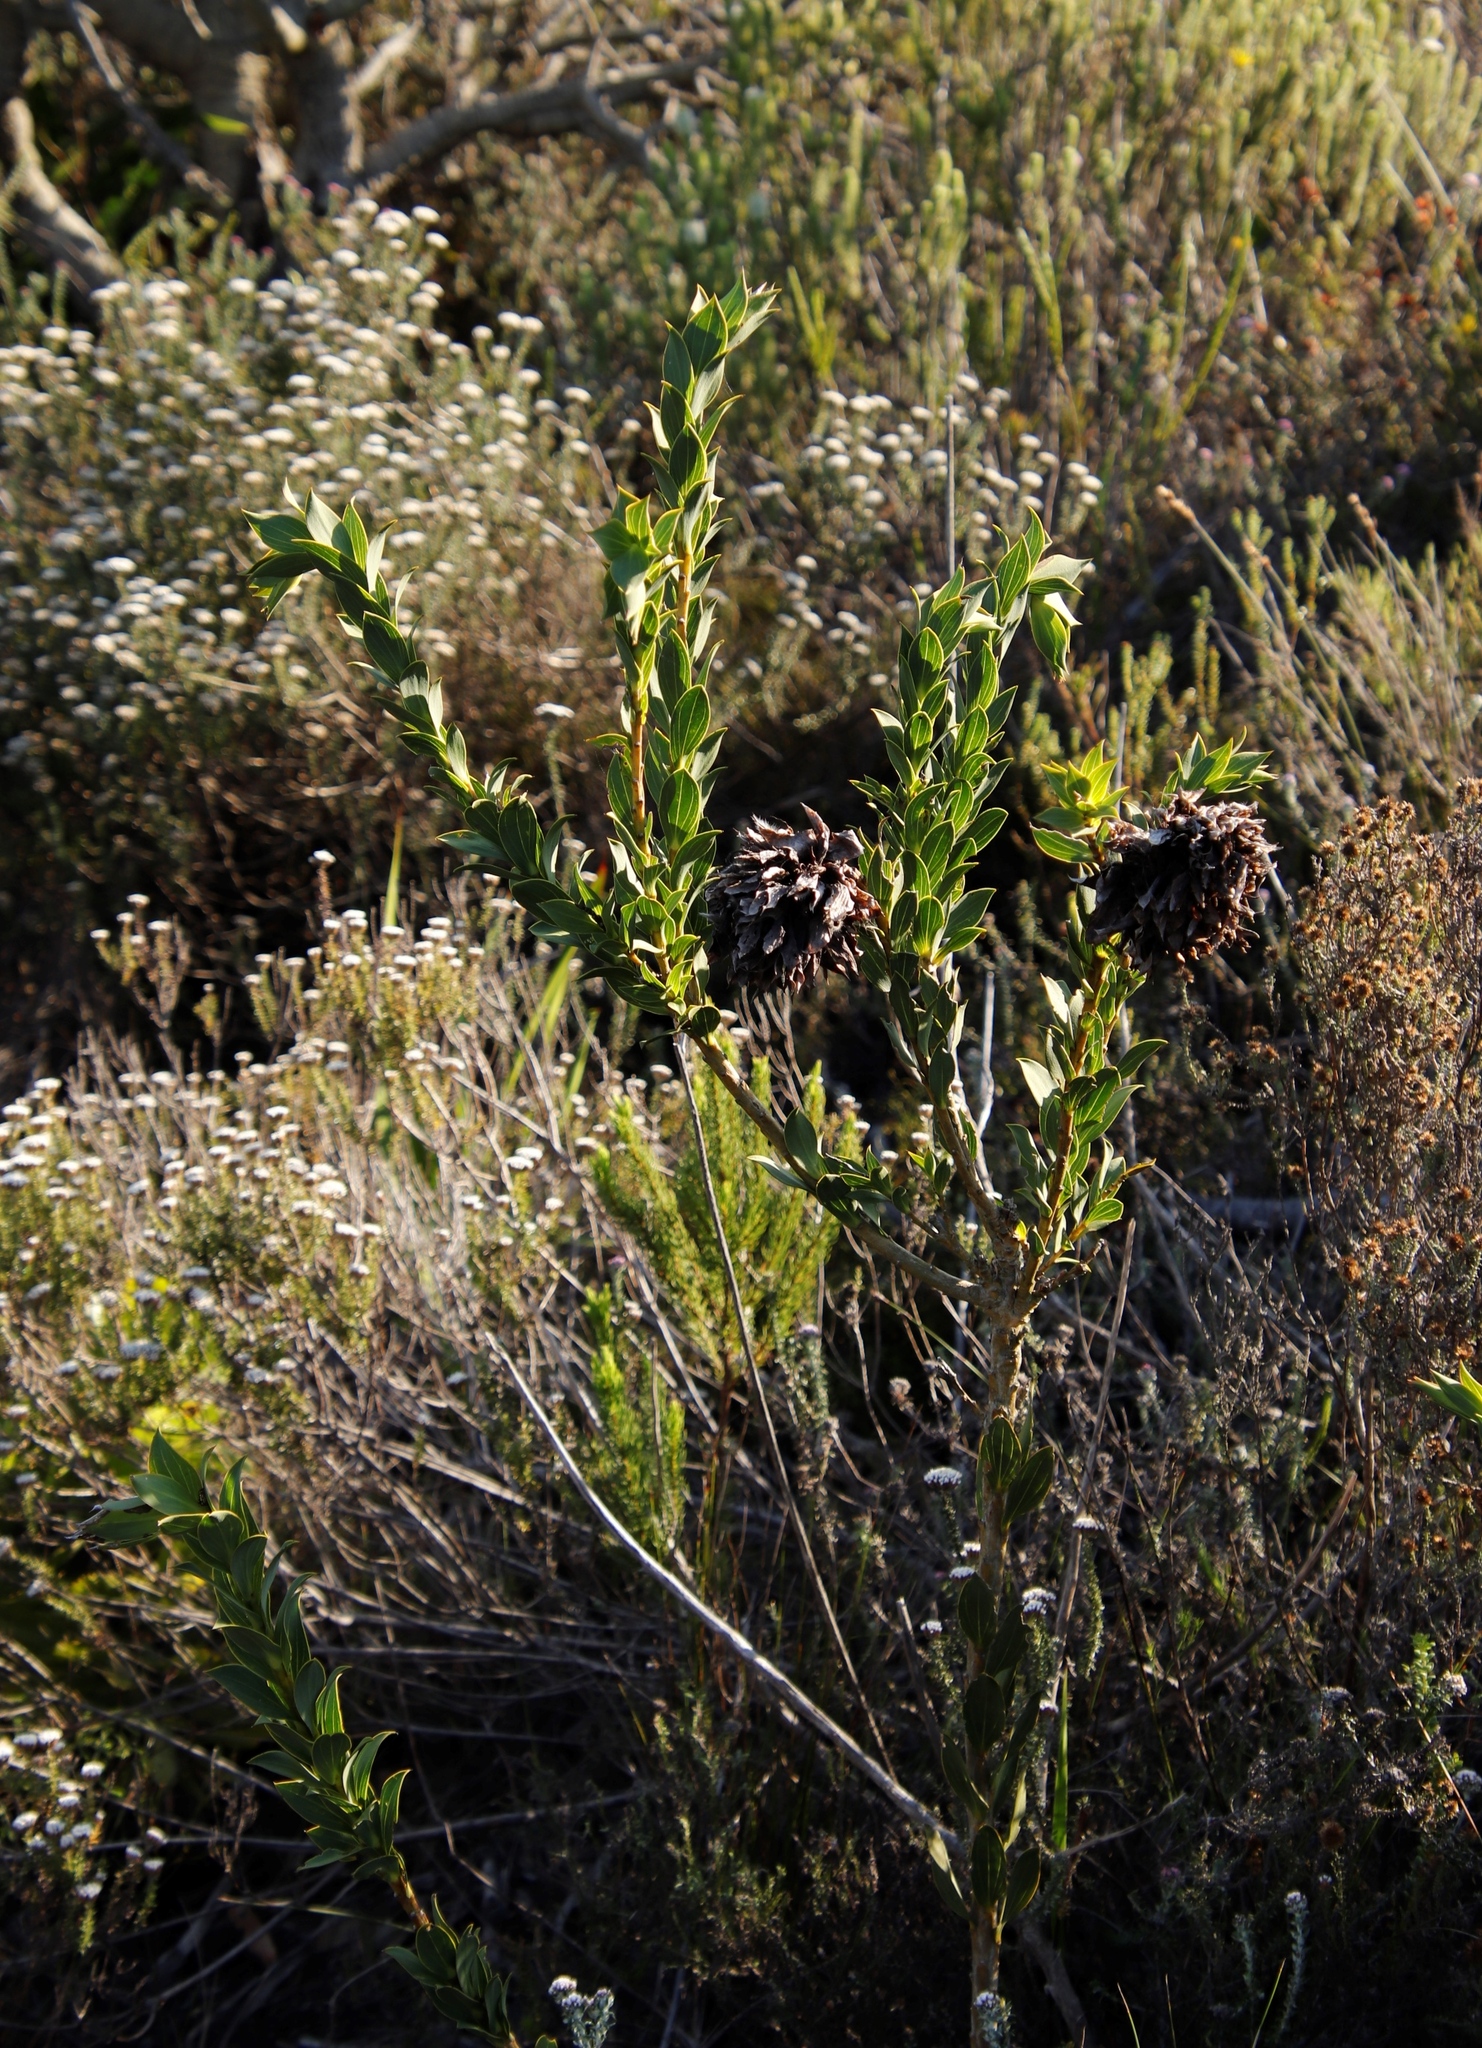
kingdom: Plantae
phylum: Tracheophyta
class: Magnoliopsida
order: Fabales
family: Fabaceae
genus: Liparia
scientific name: Liparia splendens
